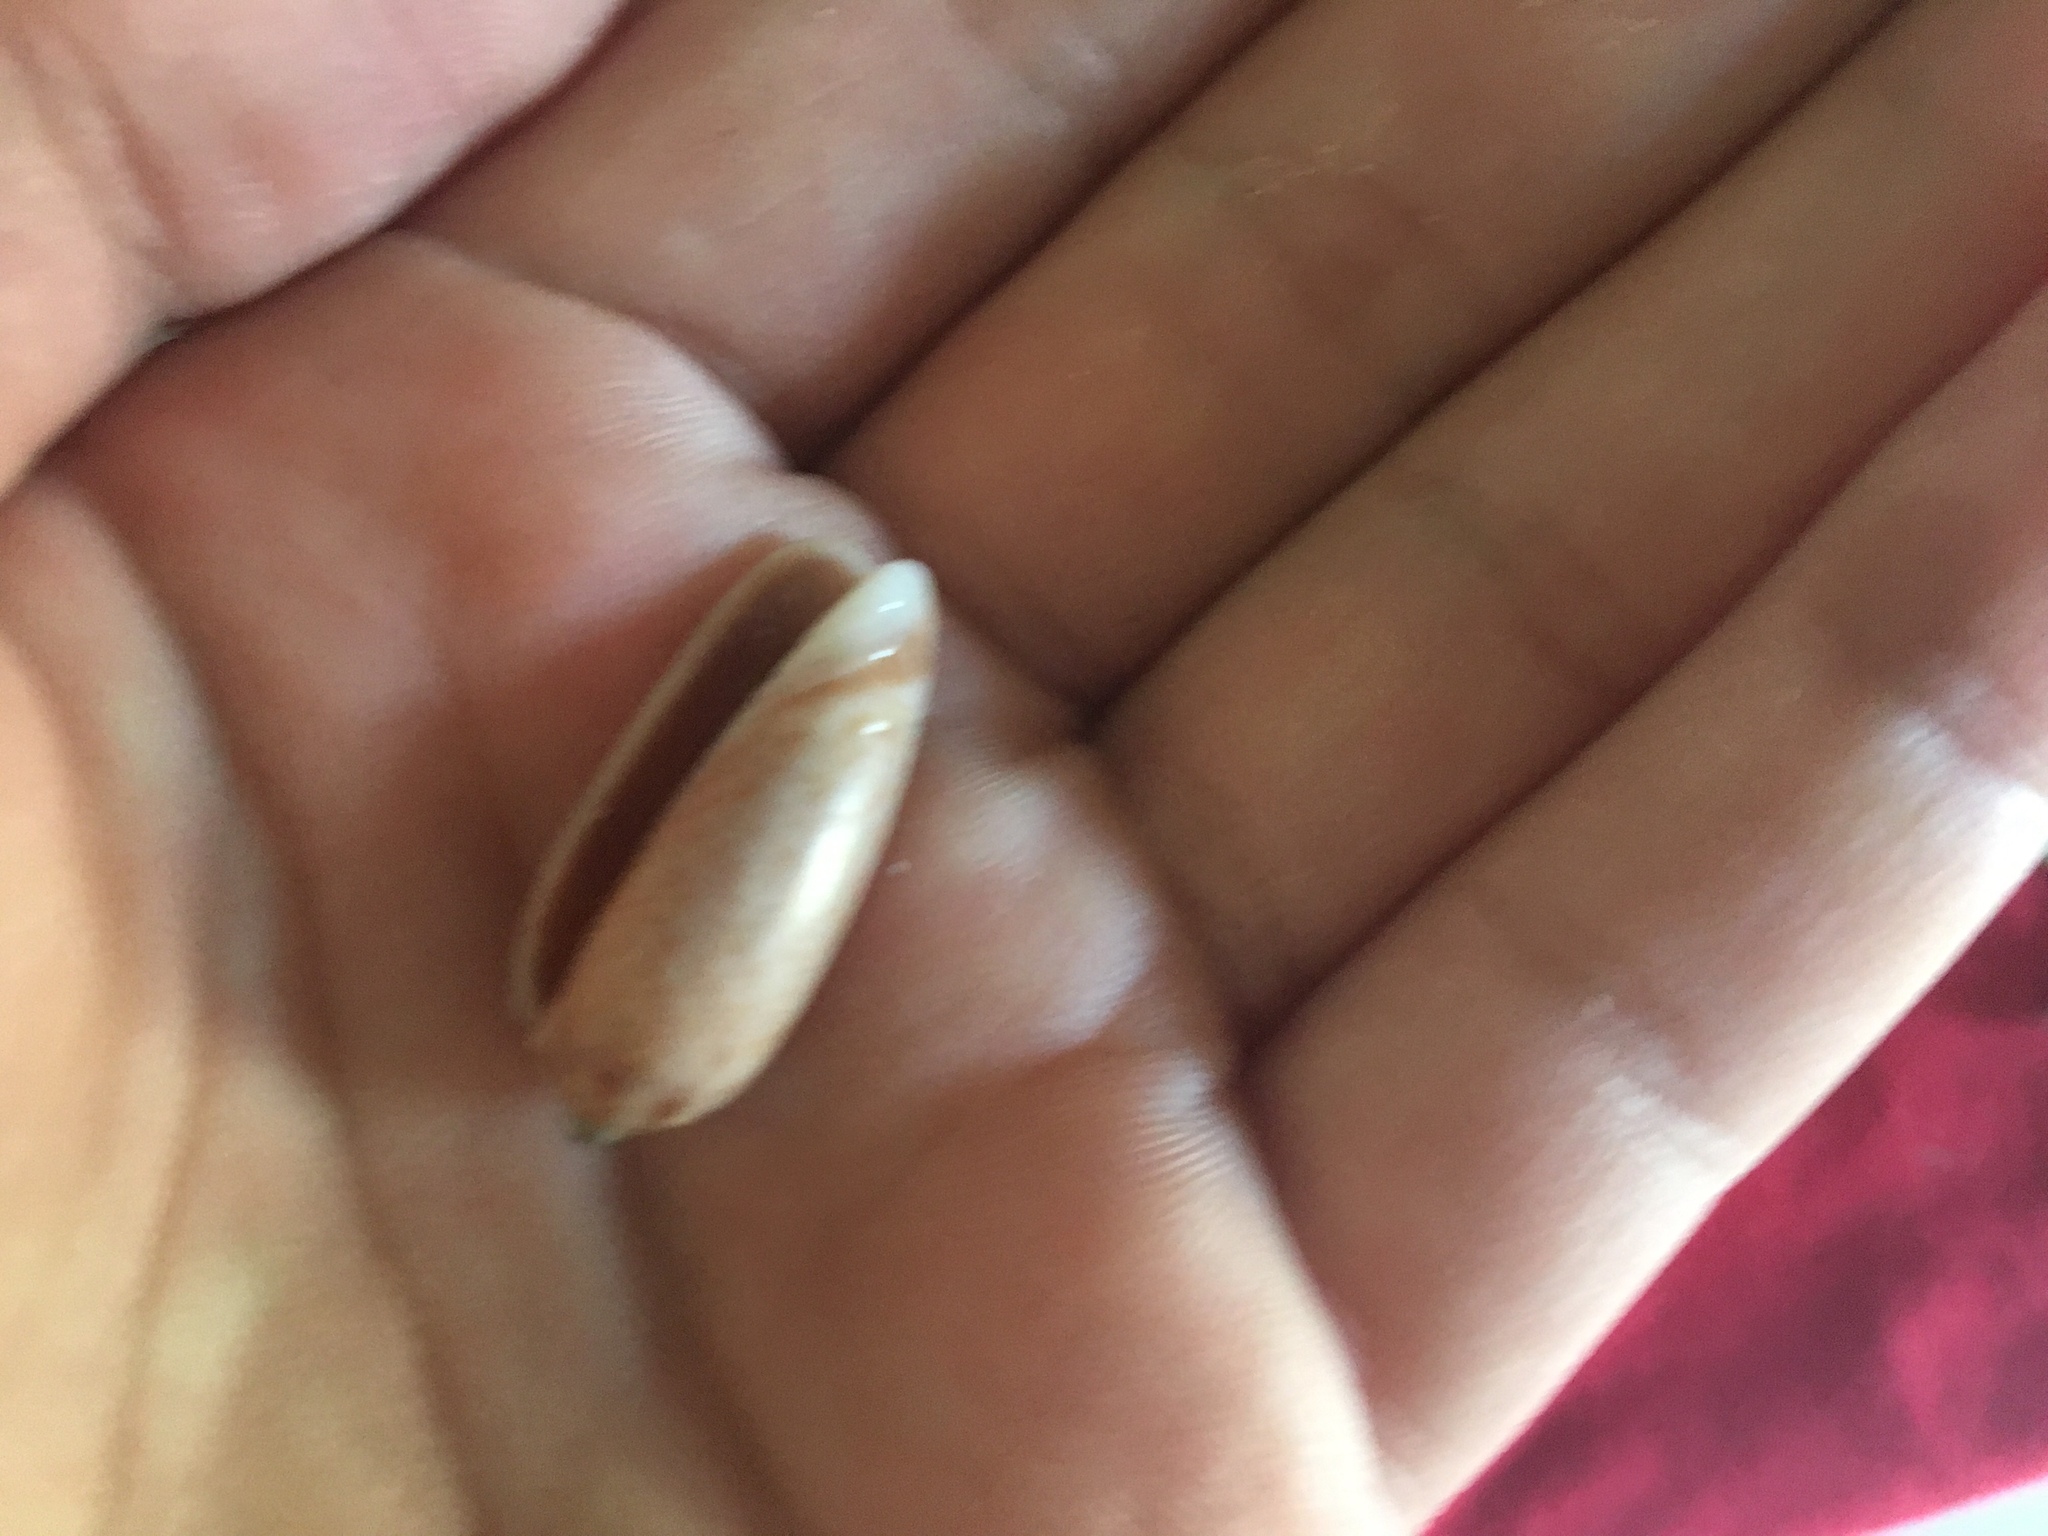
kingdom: Animalia
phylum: Mollusca
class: Gastropoda
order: Neogastropoda
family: Olividae
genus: Oliva
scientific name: Oliva mustelina
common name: Weasel olive
